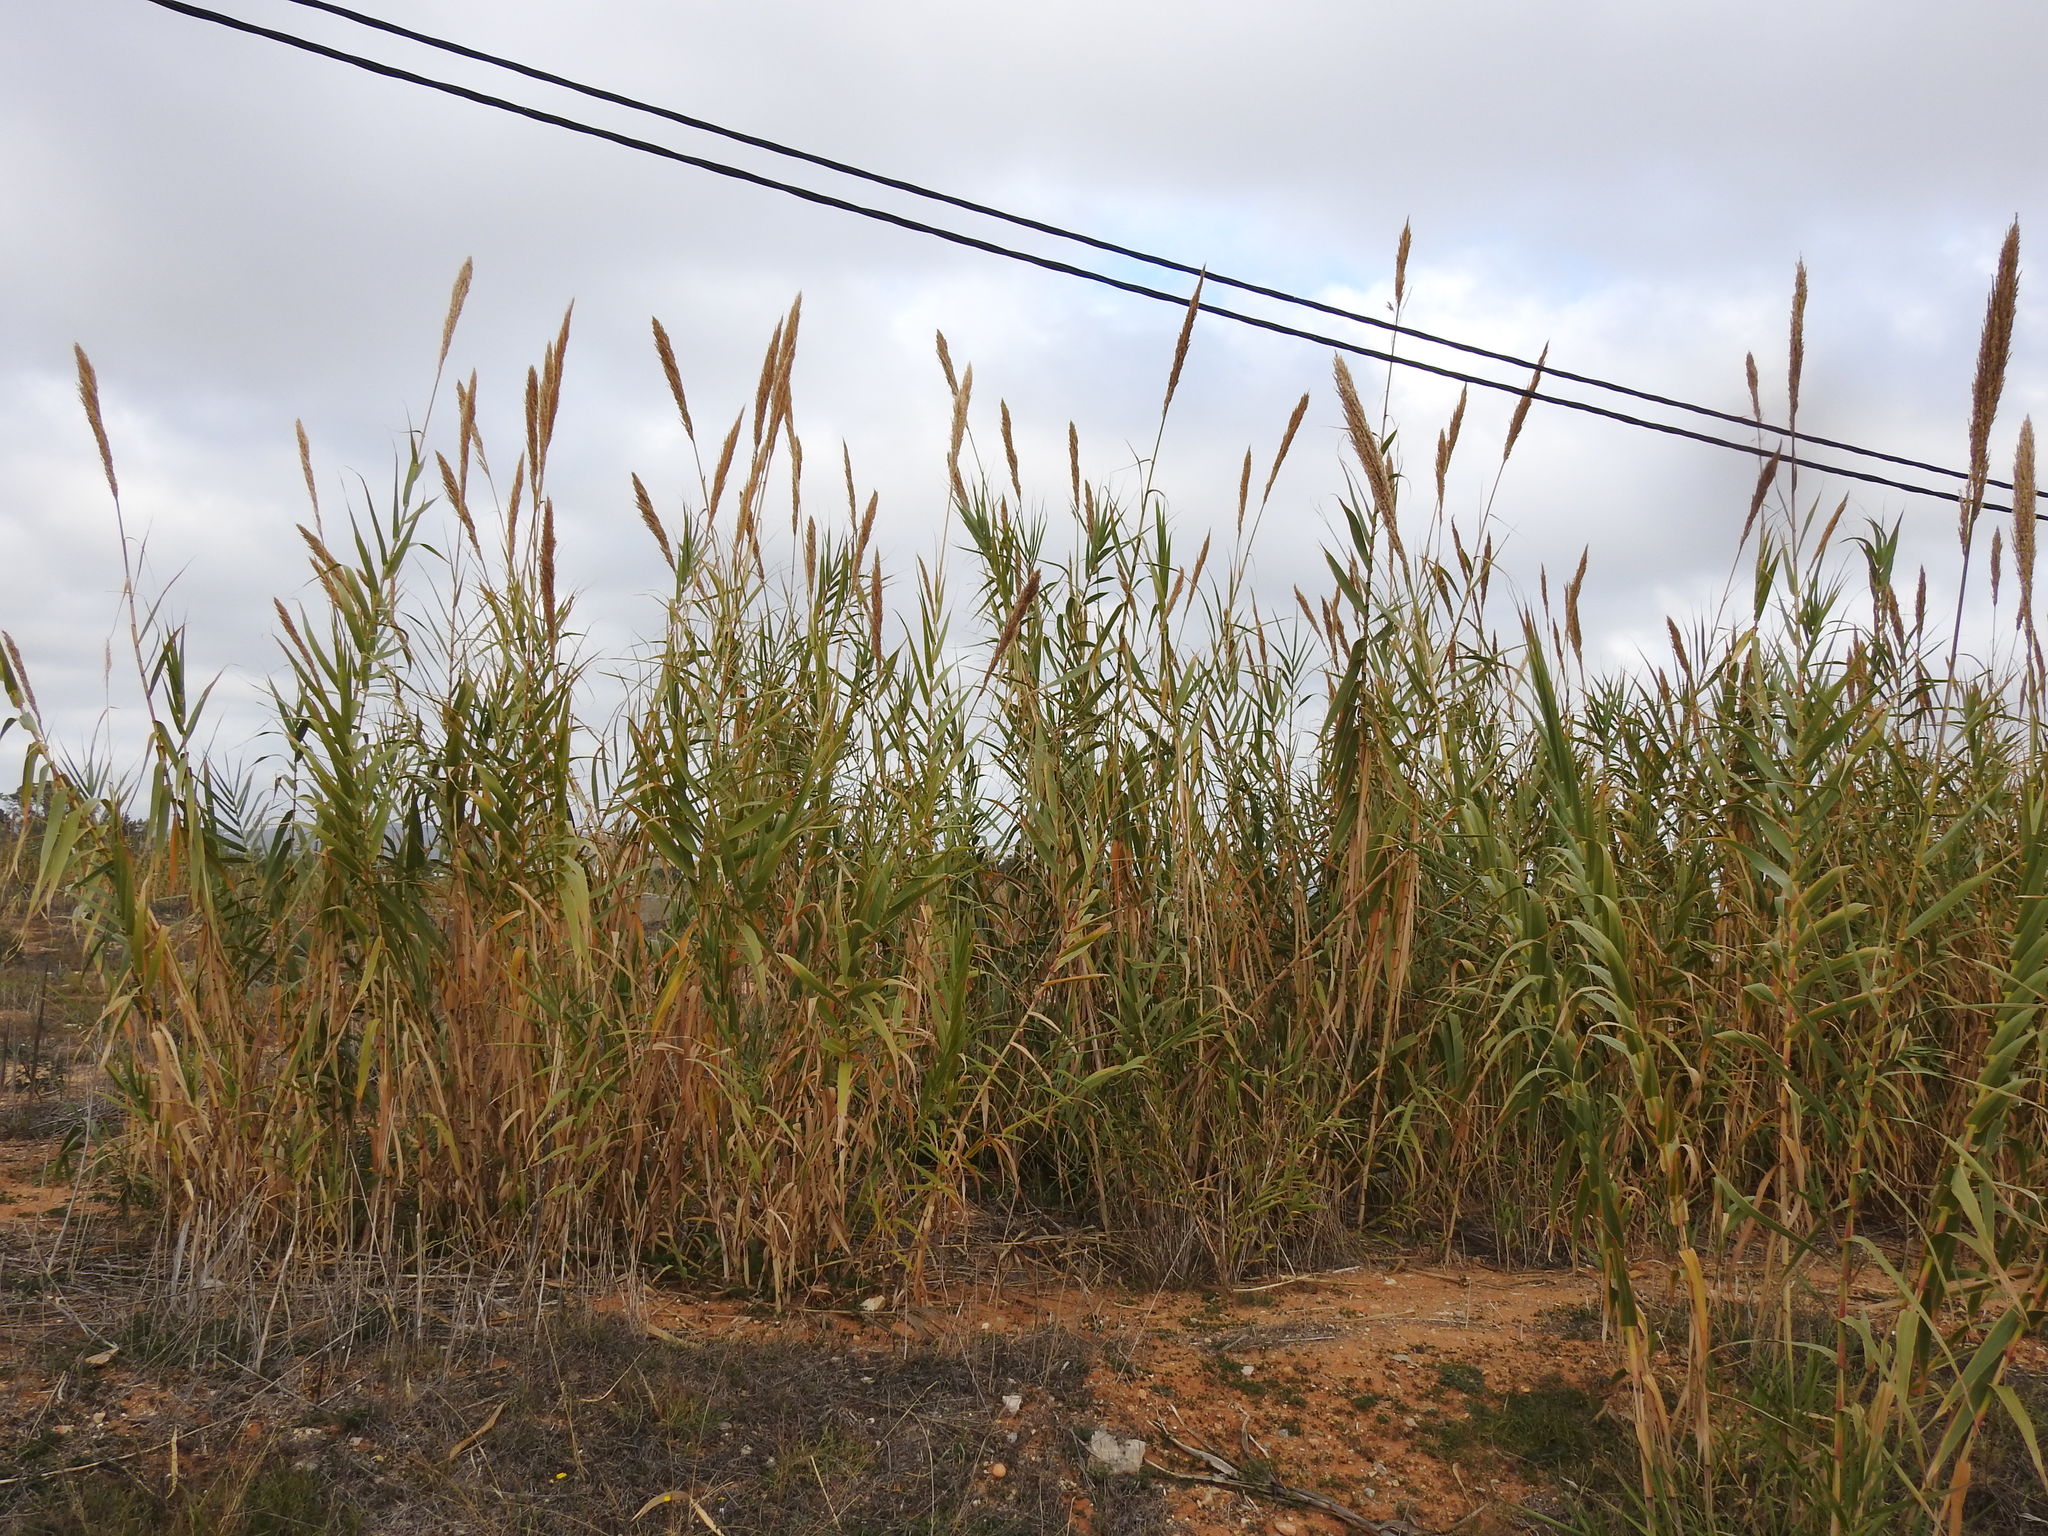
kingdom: Plantae
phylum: Tracheophyta
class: Liliopsida
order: Poales
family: Poaceae
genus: Arundo
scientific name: Arundo donax
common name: Giant reed
